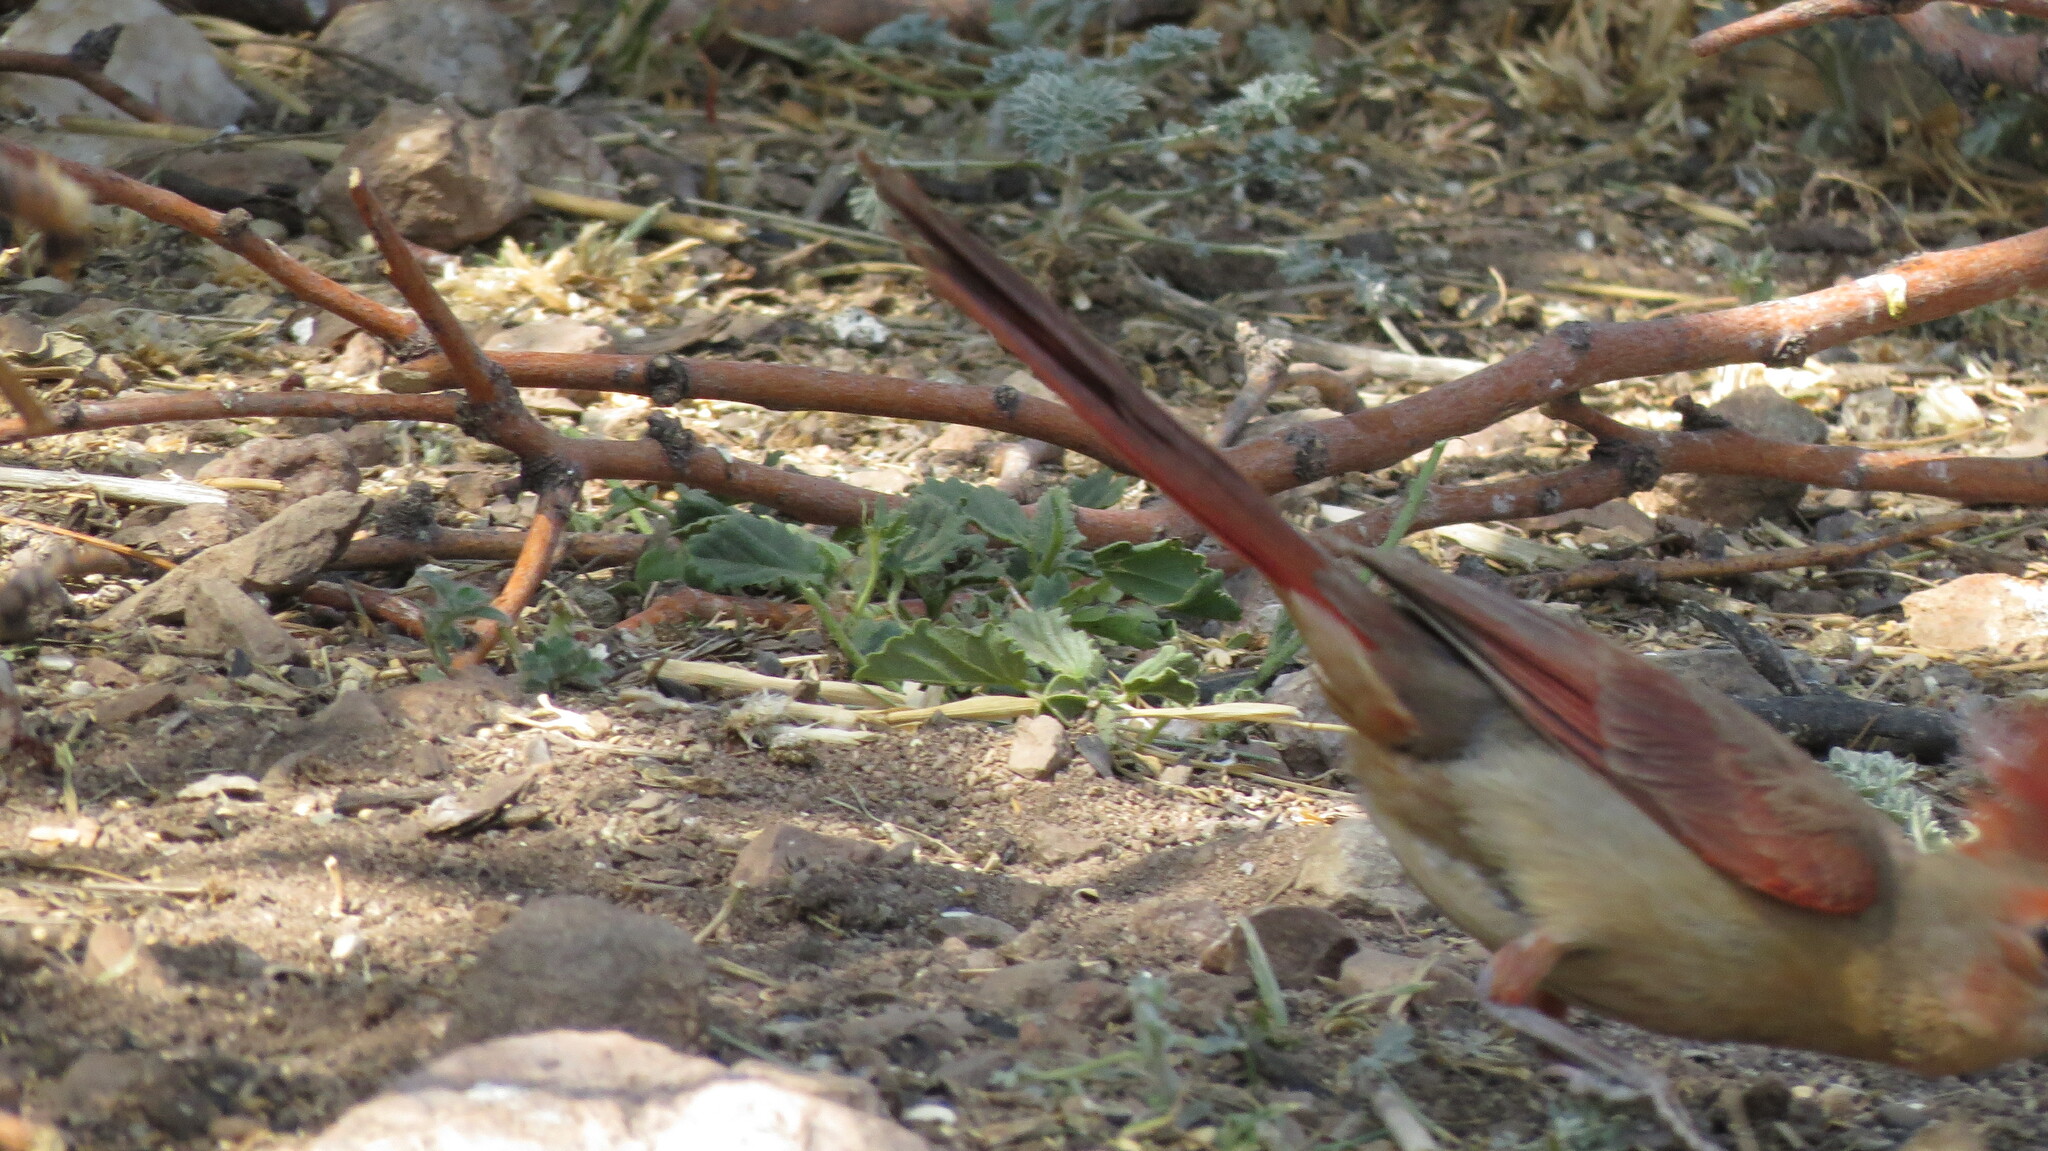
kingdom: Animalia
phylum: Chordata
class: Aves
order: Passeriformes
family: Cardinalidae
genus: Cardinalis
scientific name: Cardinalis cardinalis
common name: Northern cardinal
